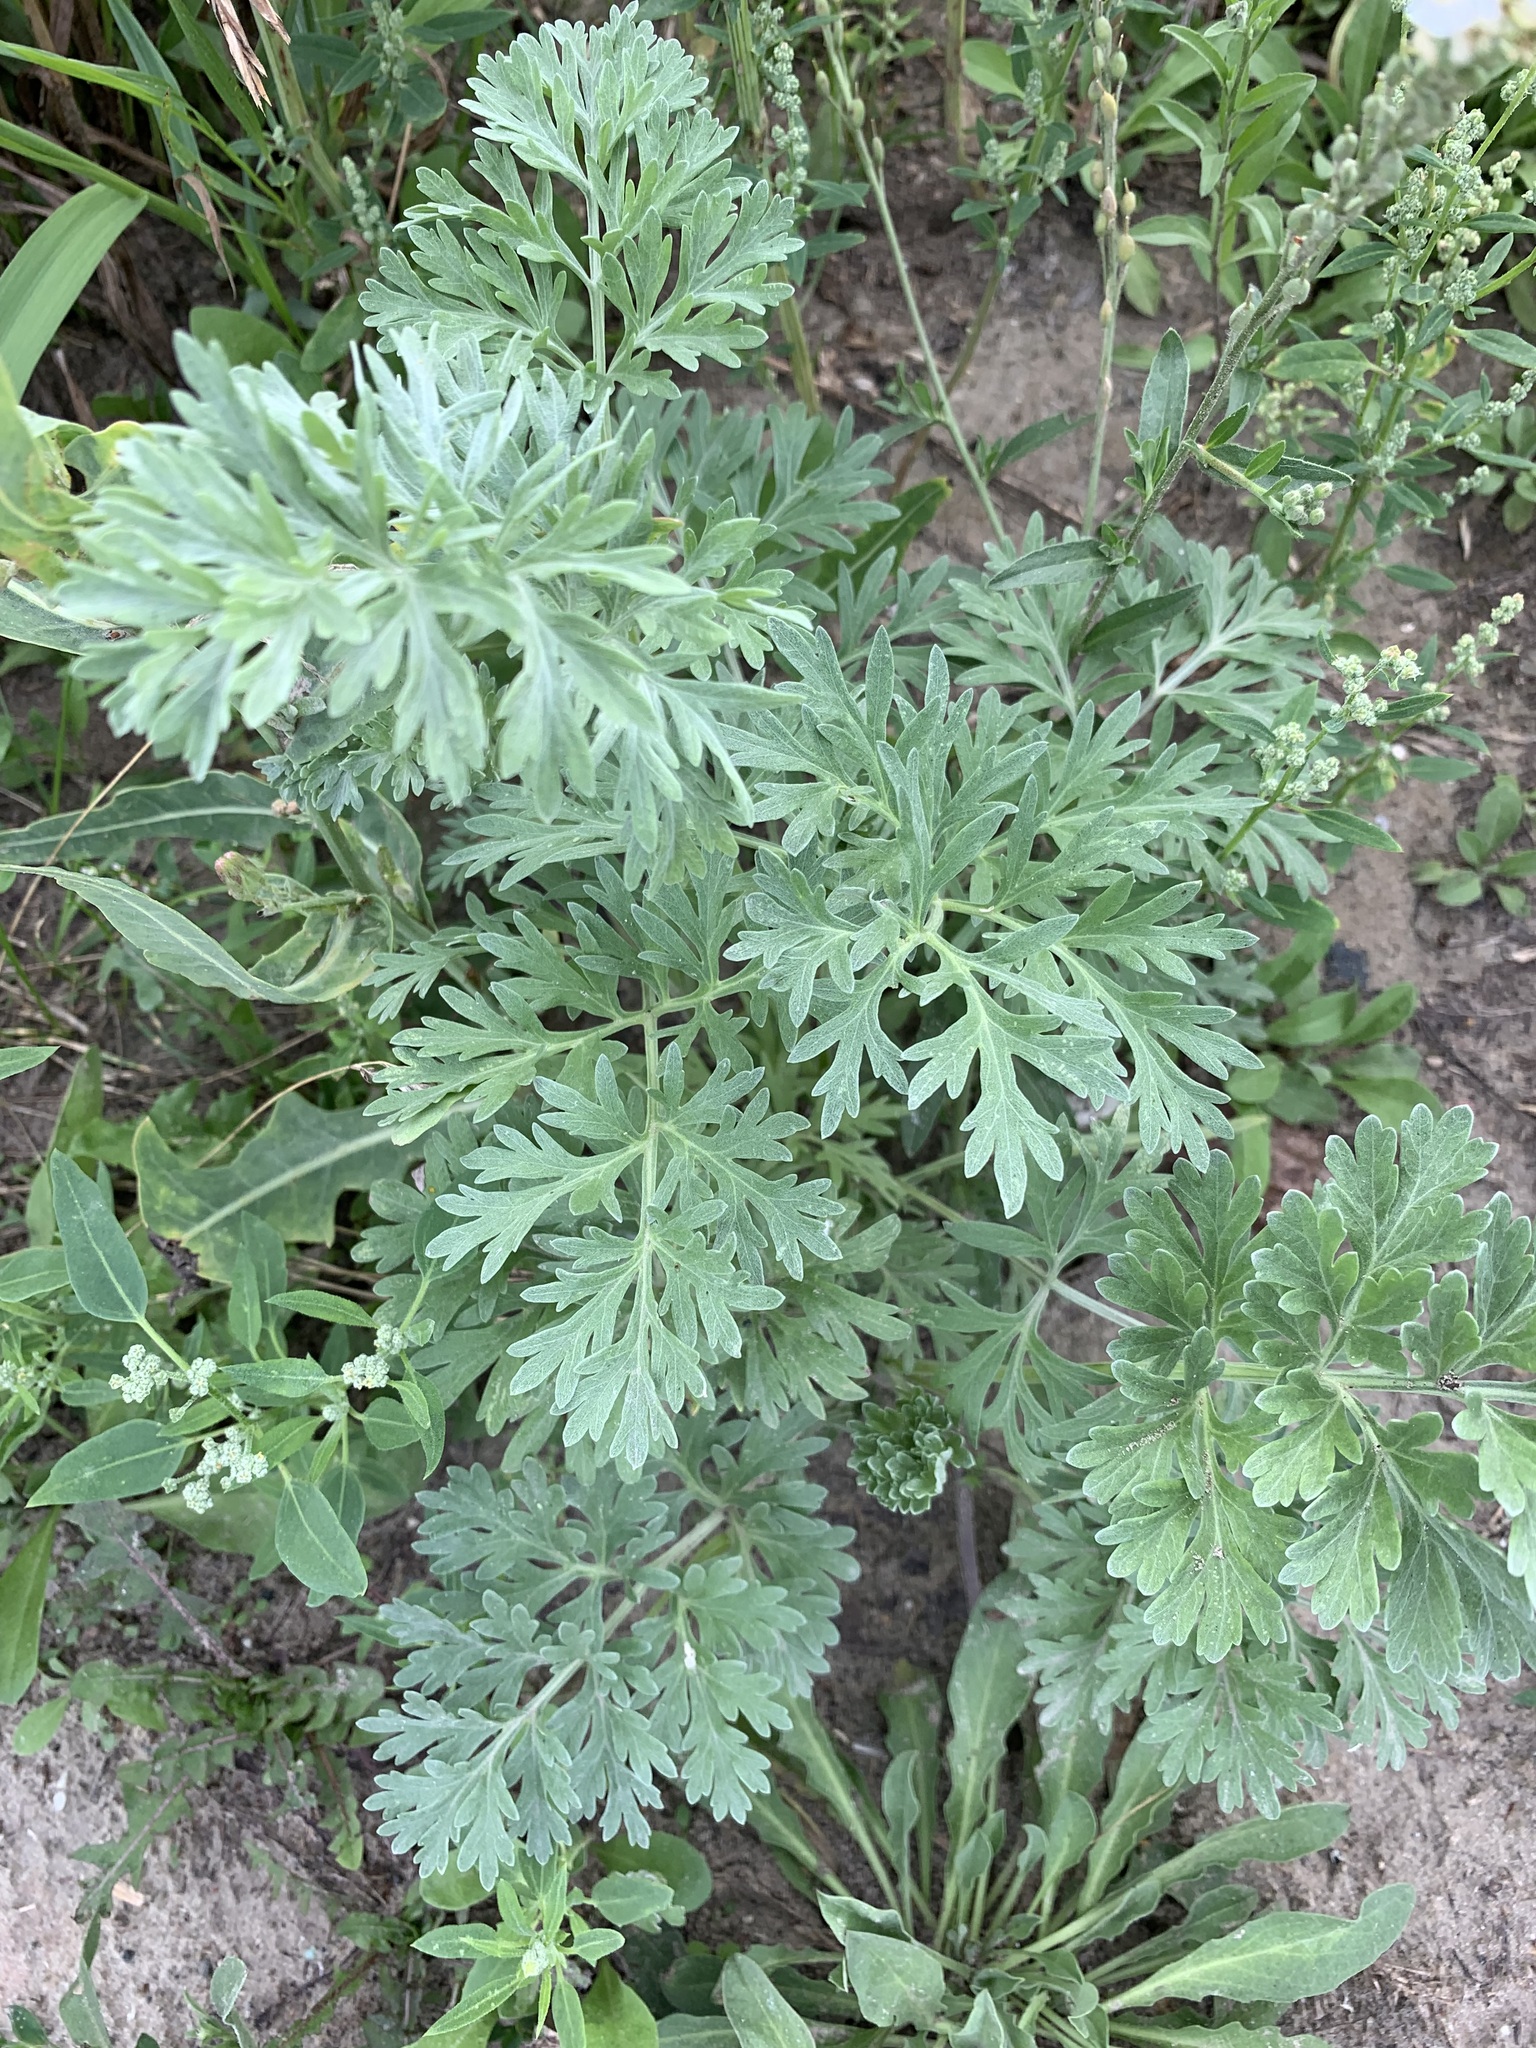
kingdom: Plantae
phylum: Tracheophyta
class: Magnoliopsida
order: Asterales
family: Asteraceae
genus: Artemisia
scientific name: Artemisia absinthium
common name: Wormwood
